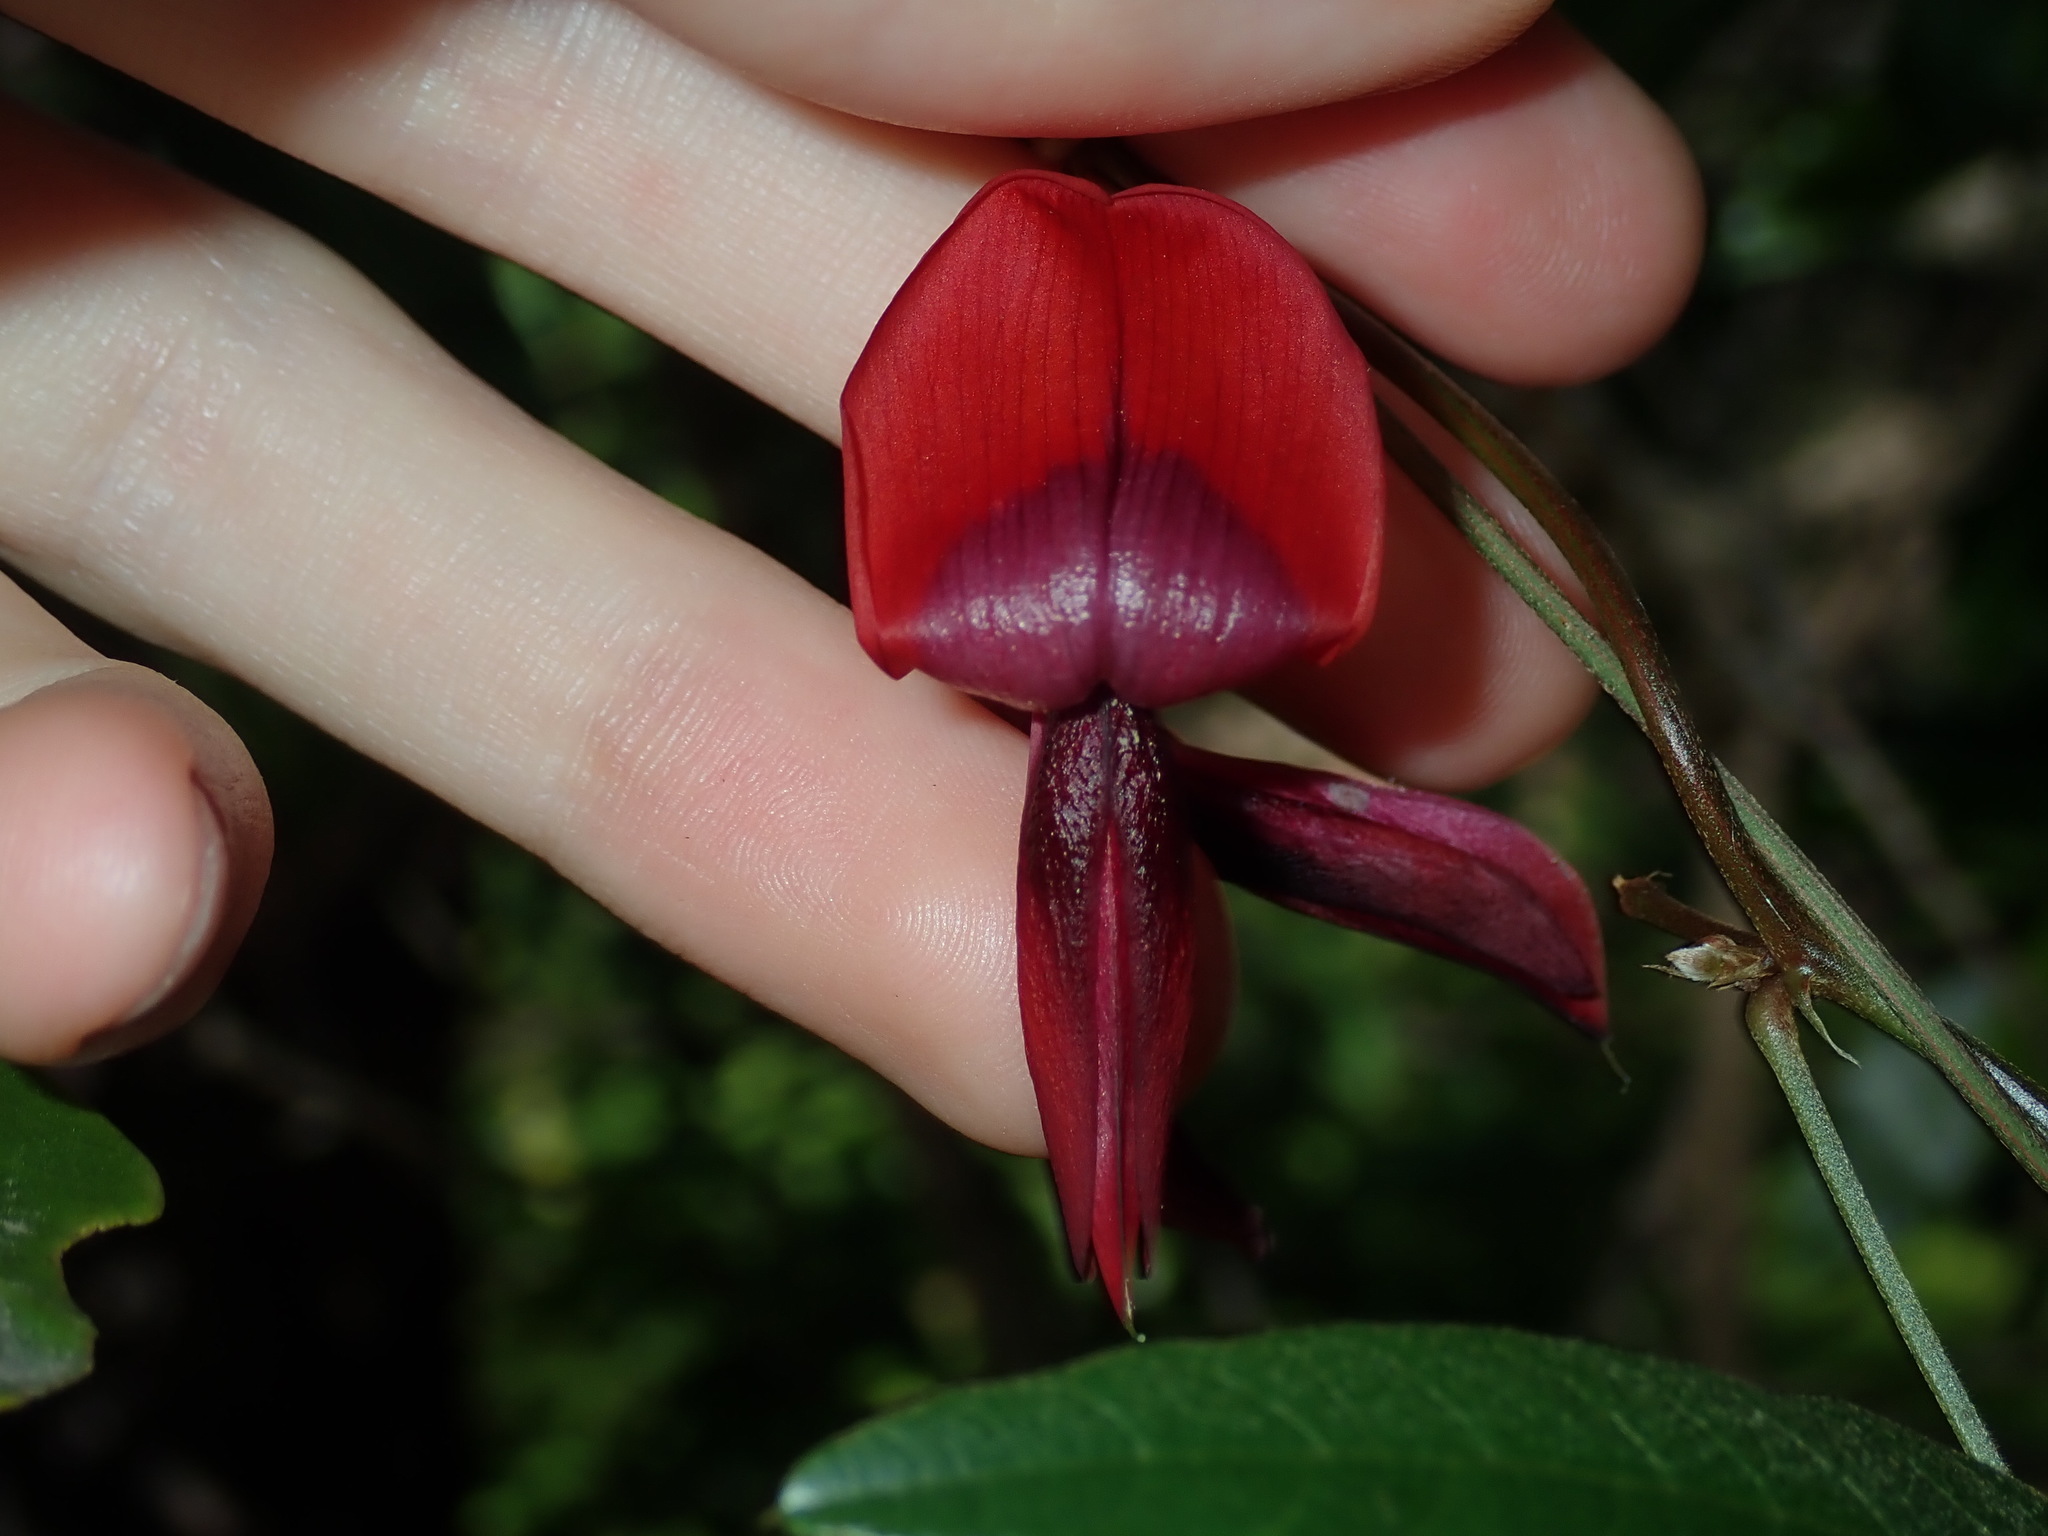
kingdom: Plantae
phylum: Tracheophyta
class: Magnoliopsida
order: Fabales
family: Fabaceae
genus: Kennedia
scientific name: Kennedia rubicunda
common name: Red kennedy-pea
